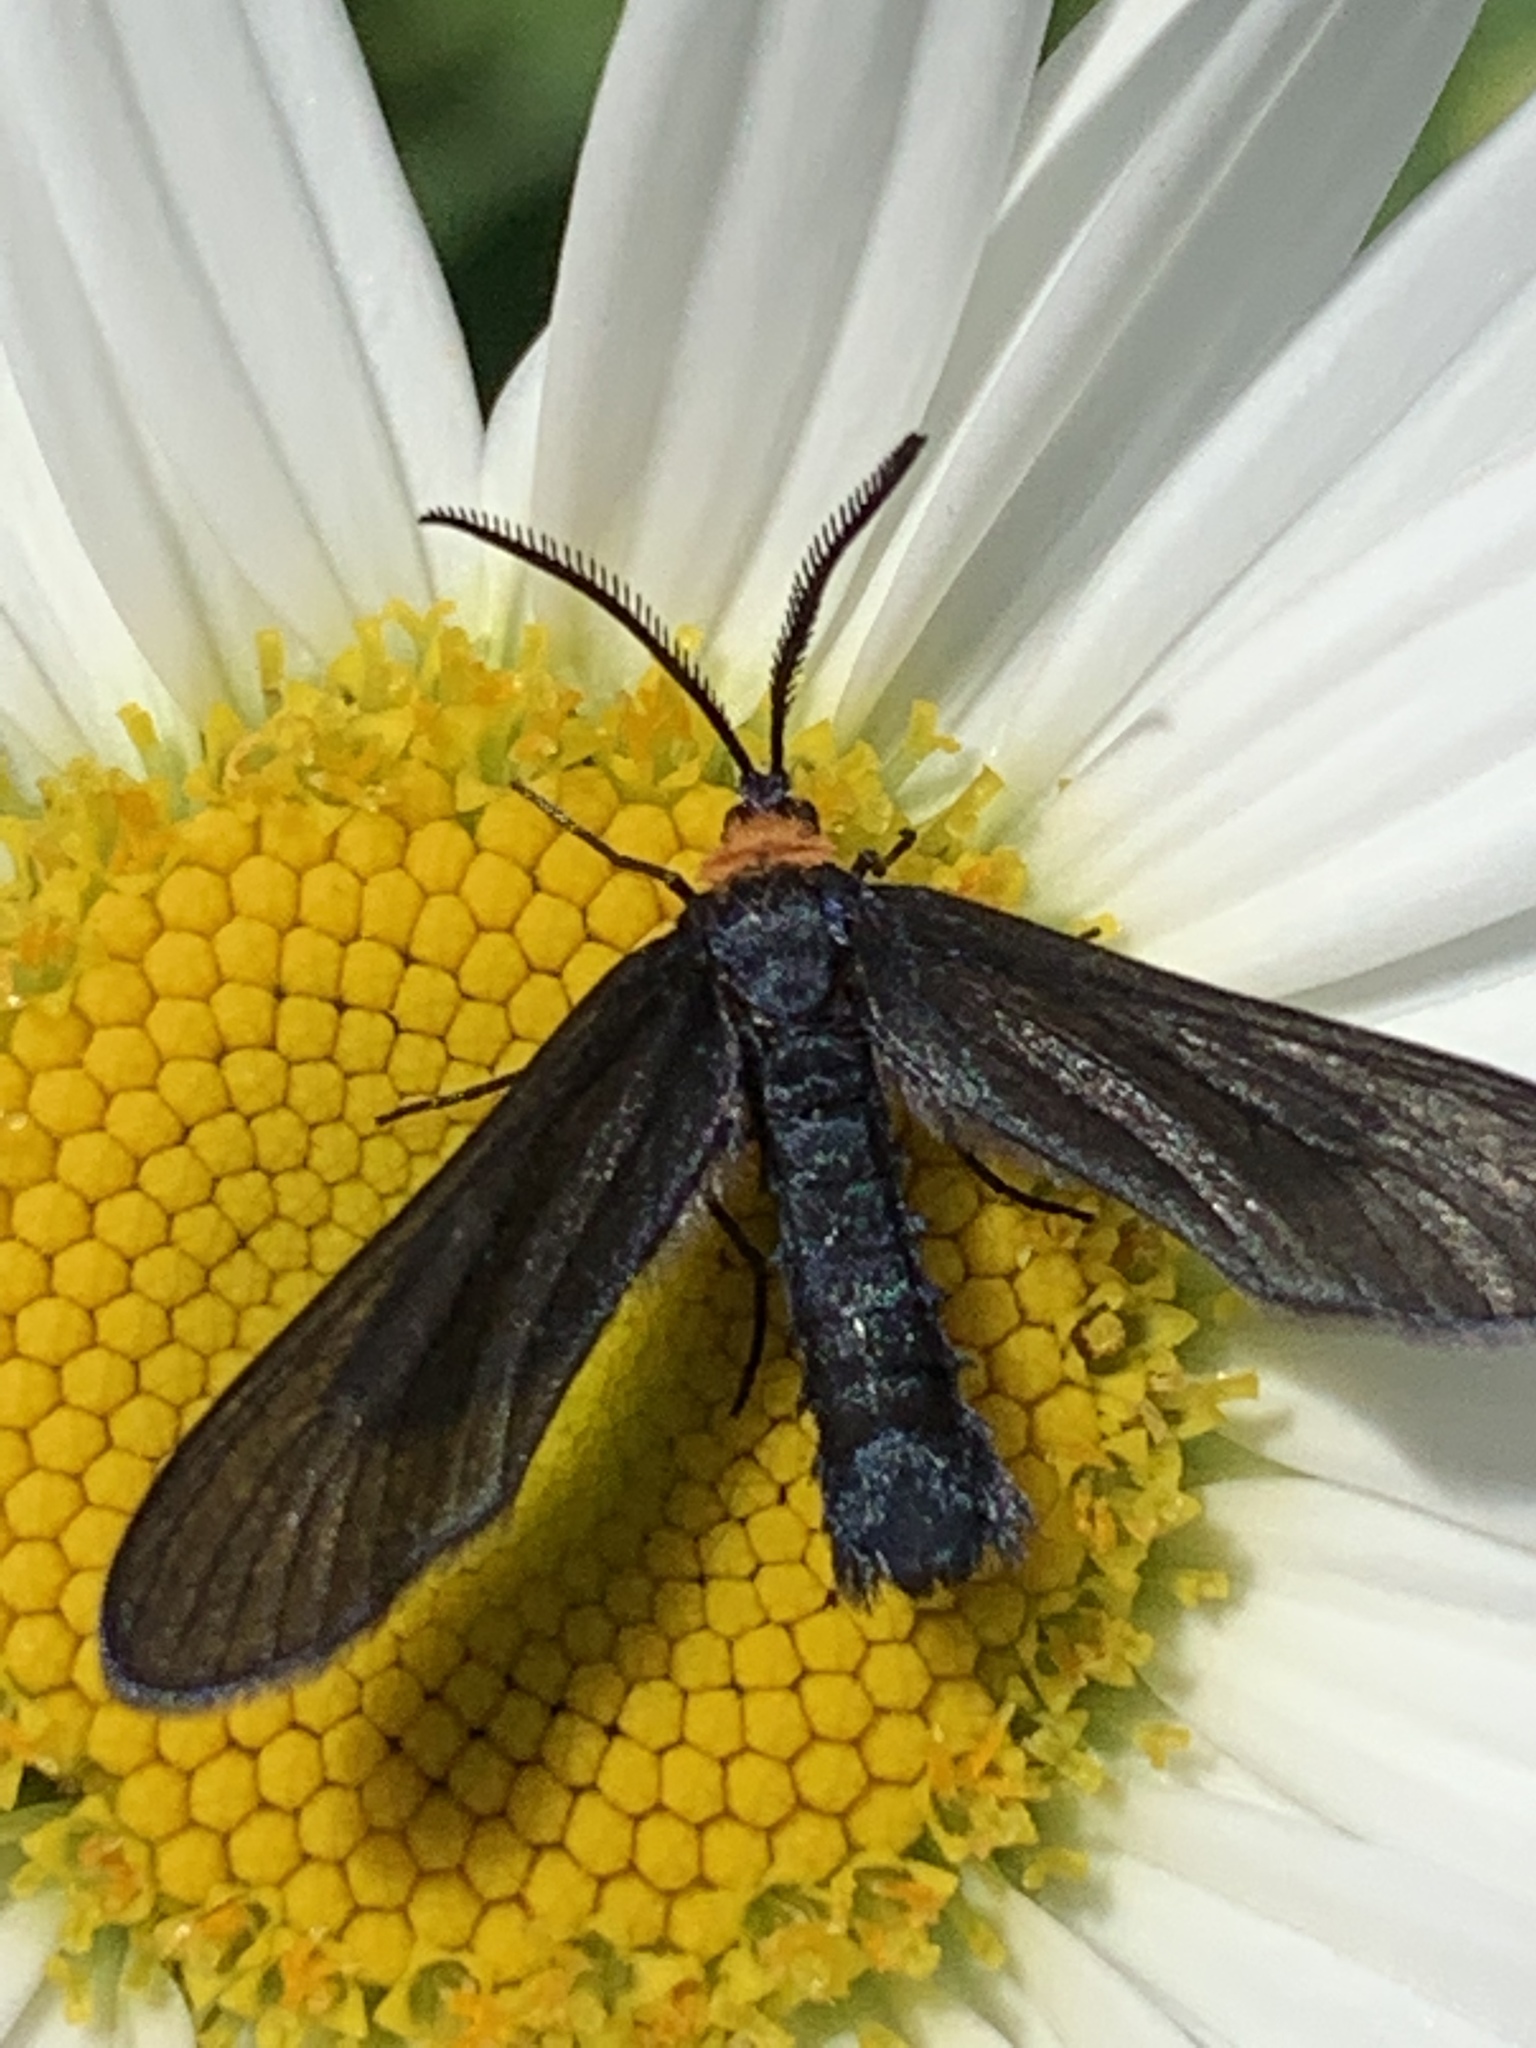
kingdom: Animalia
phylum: Arthropoda
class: Insecta
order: Lepidoptera
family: Zygaenidae
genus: Harrisina
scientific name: Harrisina americana
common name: Grapeleaf skeletonizer moth
